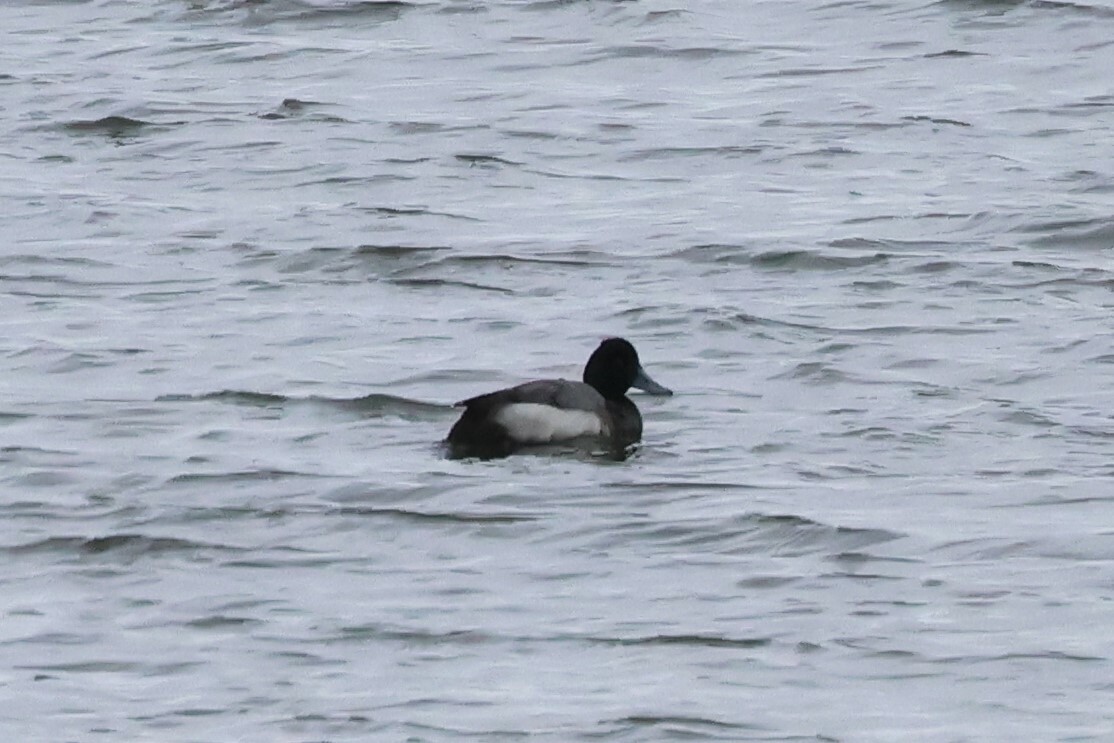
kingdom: Animalia
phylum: Chordata
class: Aves
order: Anseriformes
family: Anatidae
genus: Aythya
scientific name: Aythya affinis
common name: Lesser scaup
